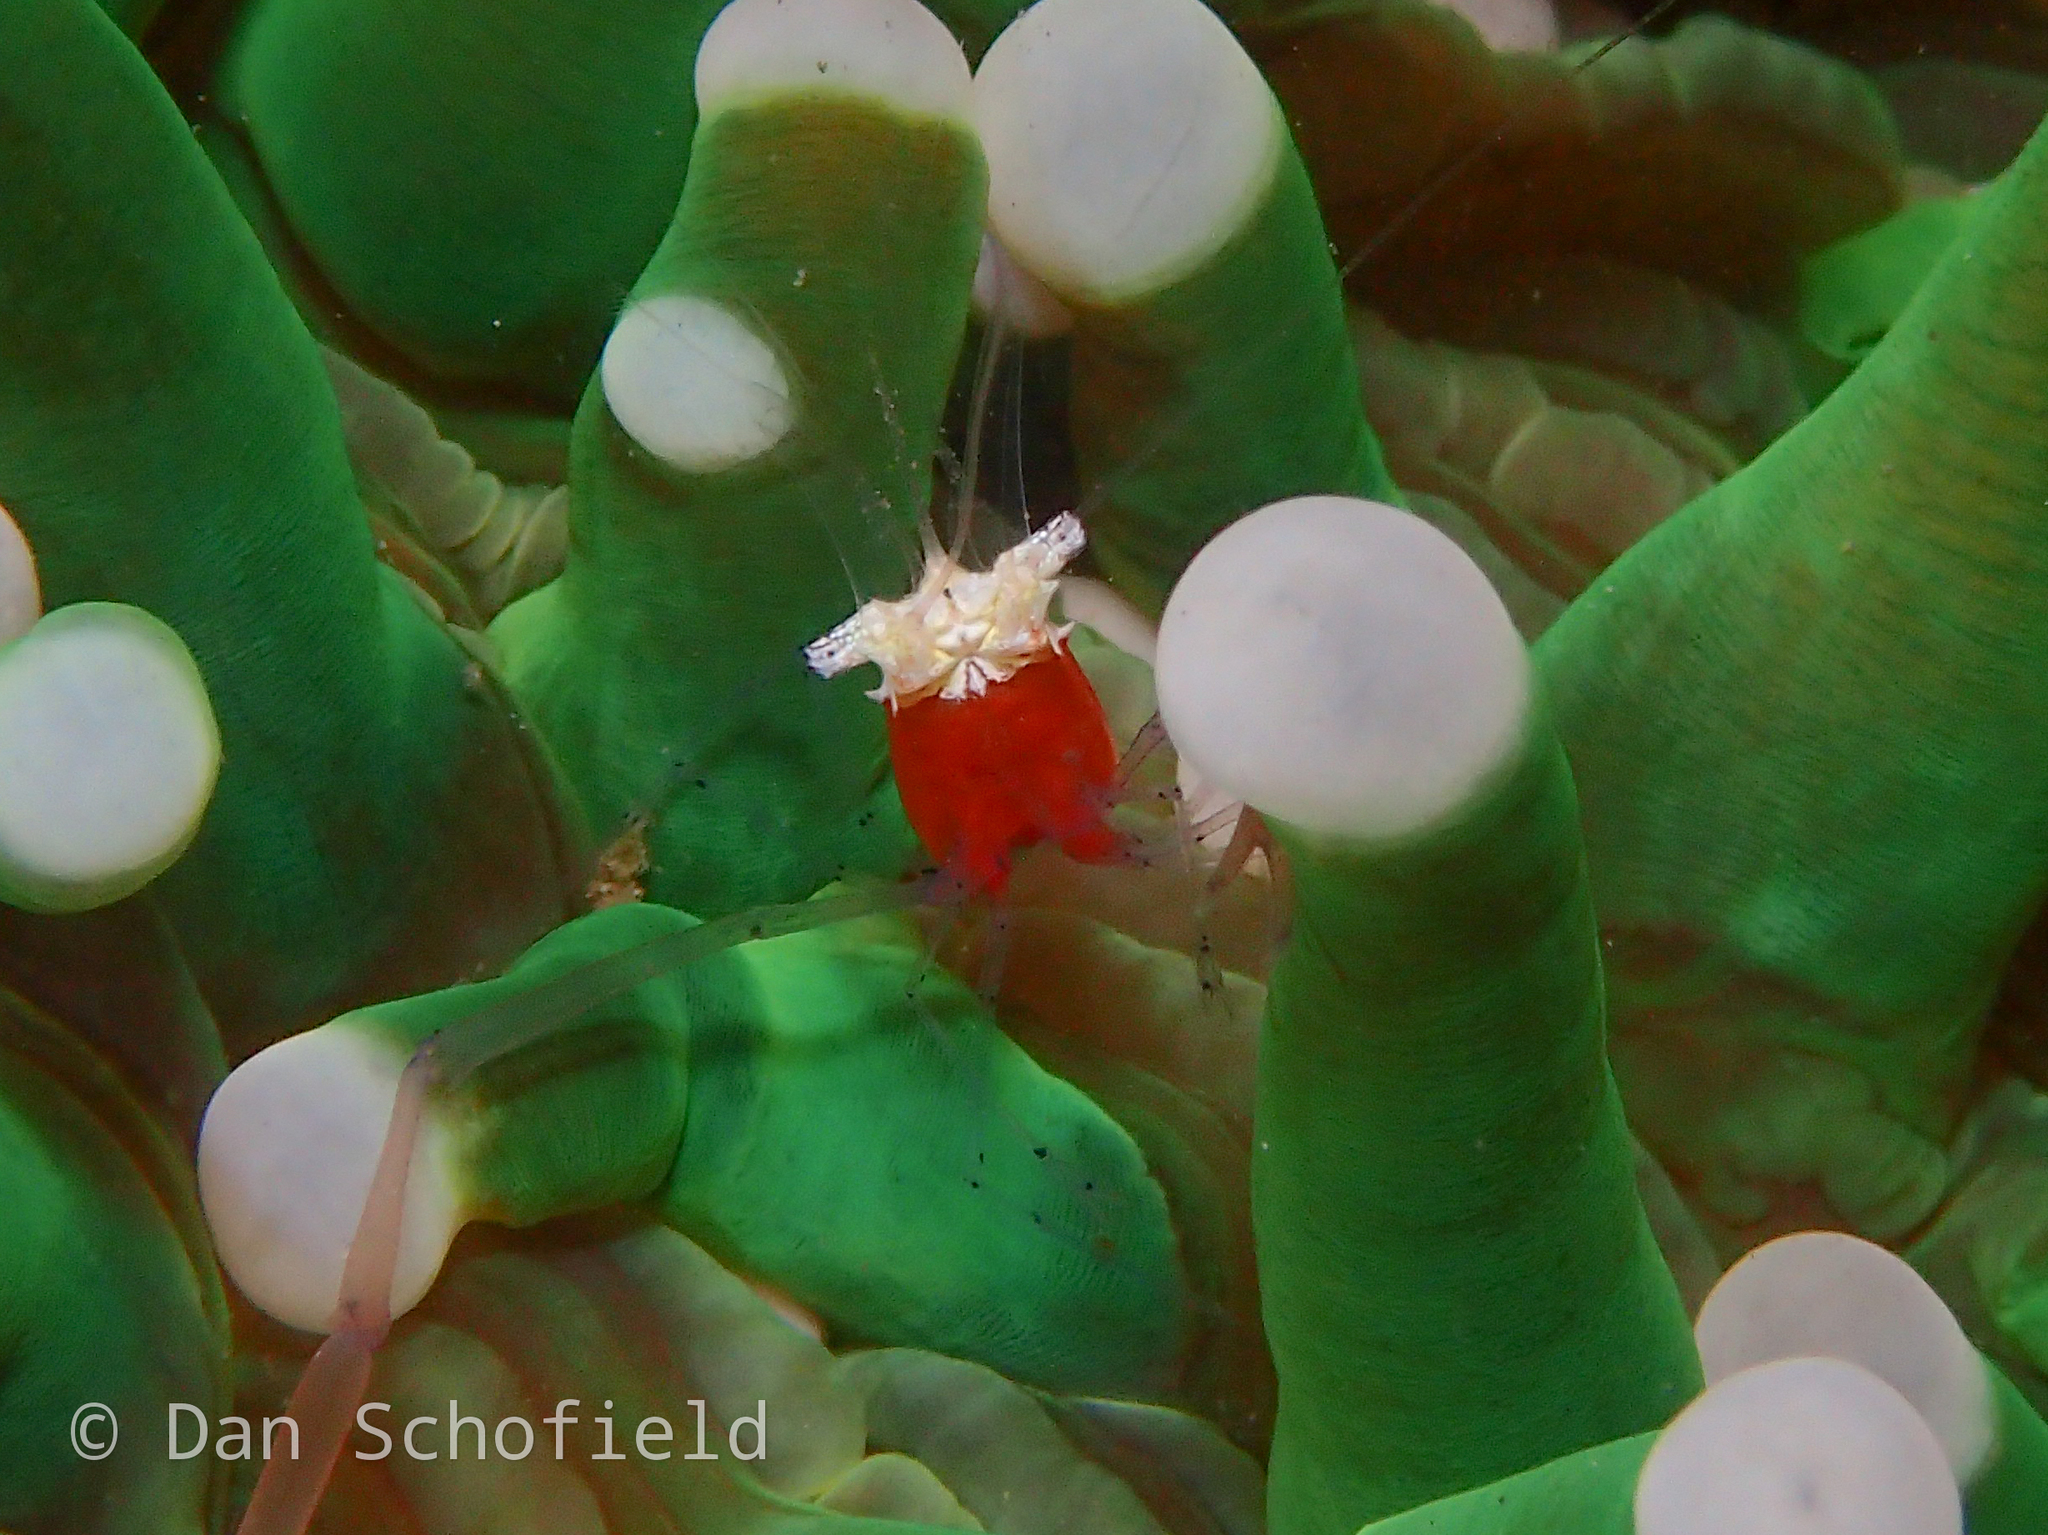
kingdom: Animalia
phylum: Arthropoda
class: Malacostraca
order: Decapoda
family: Palaemonidae
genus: Cuapetes
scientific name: Cuapetes kororensis
